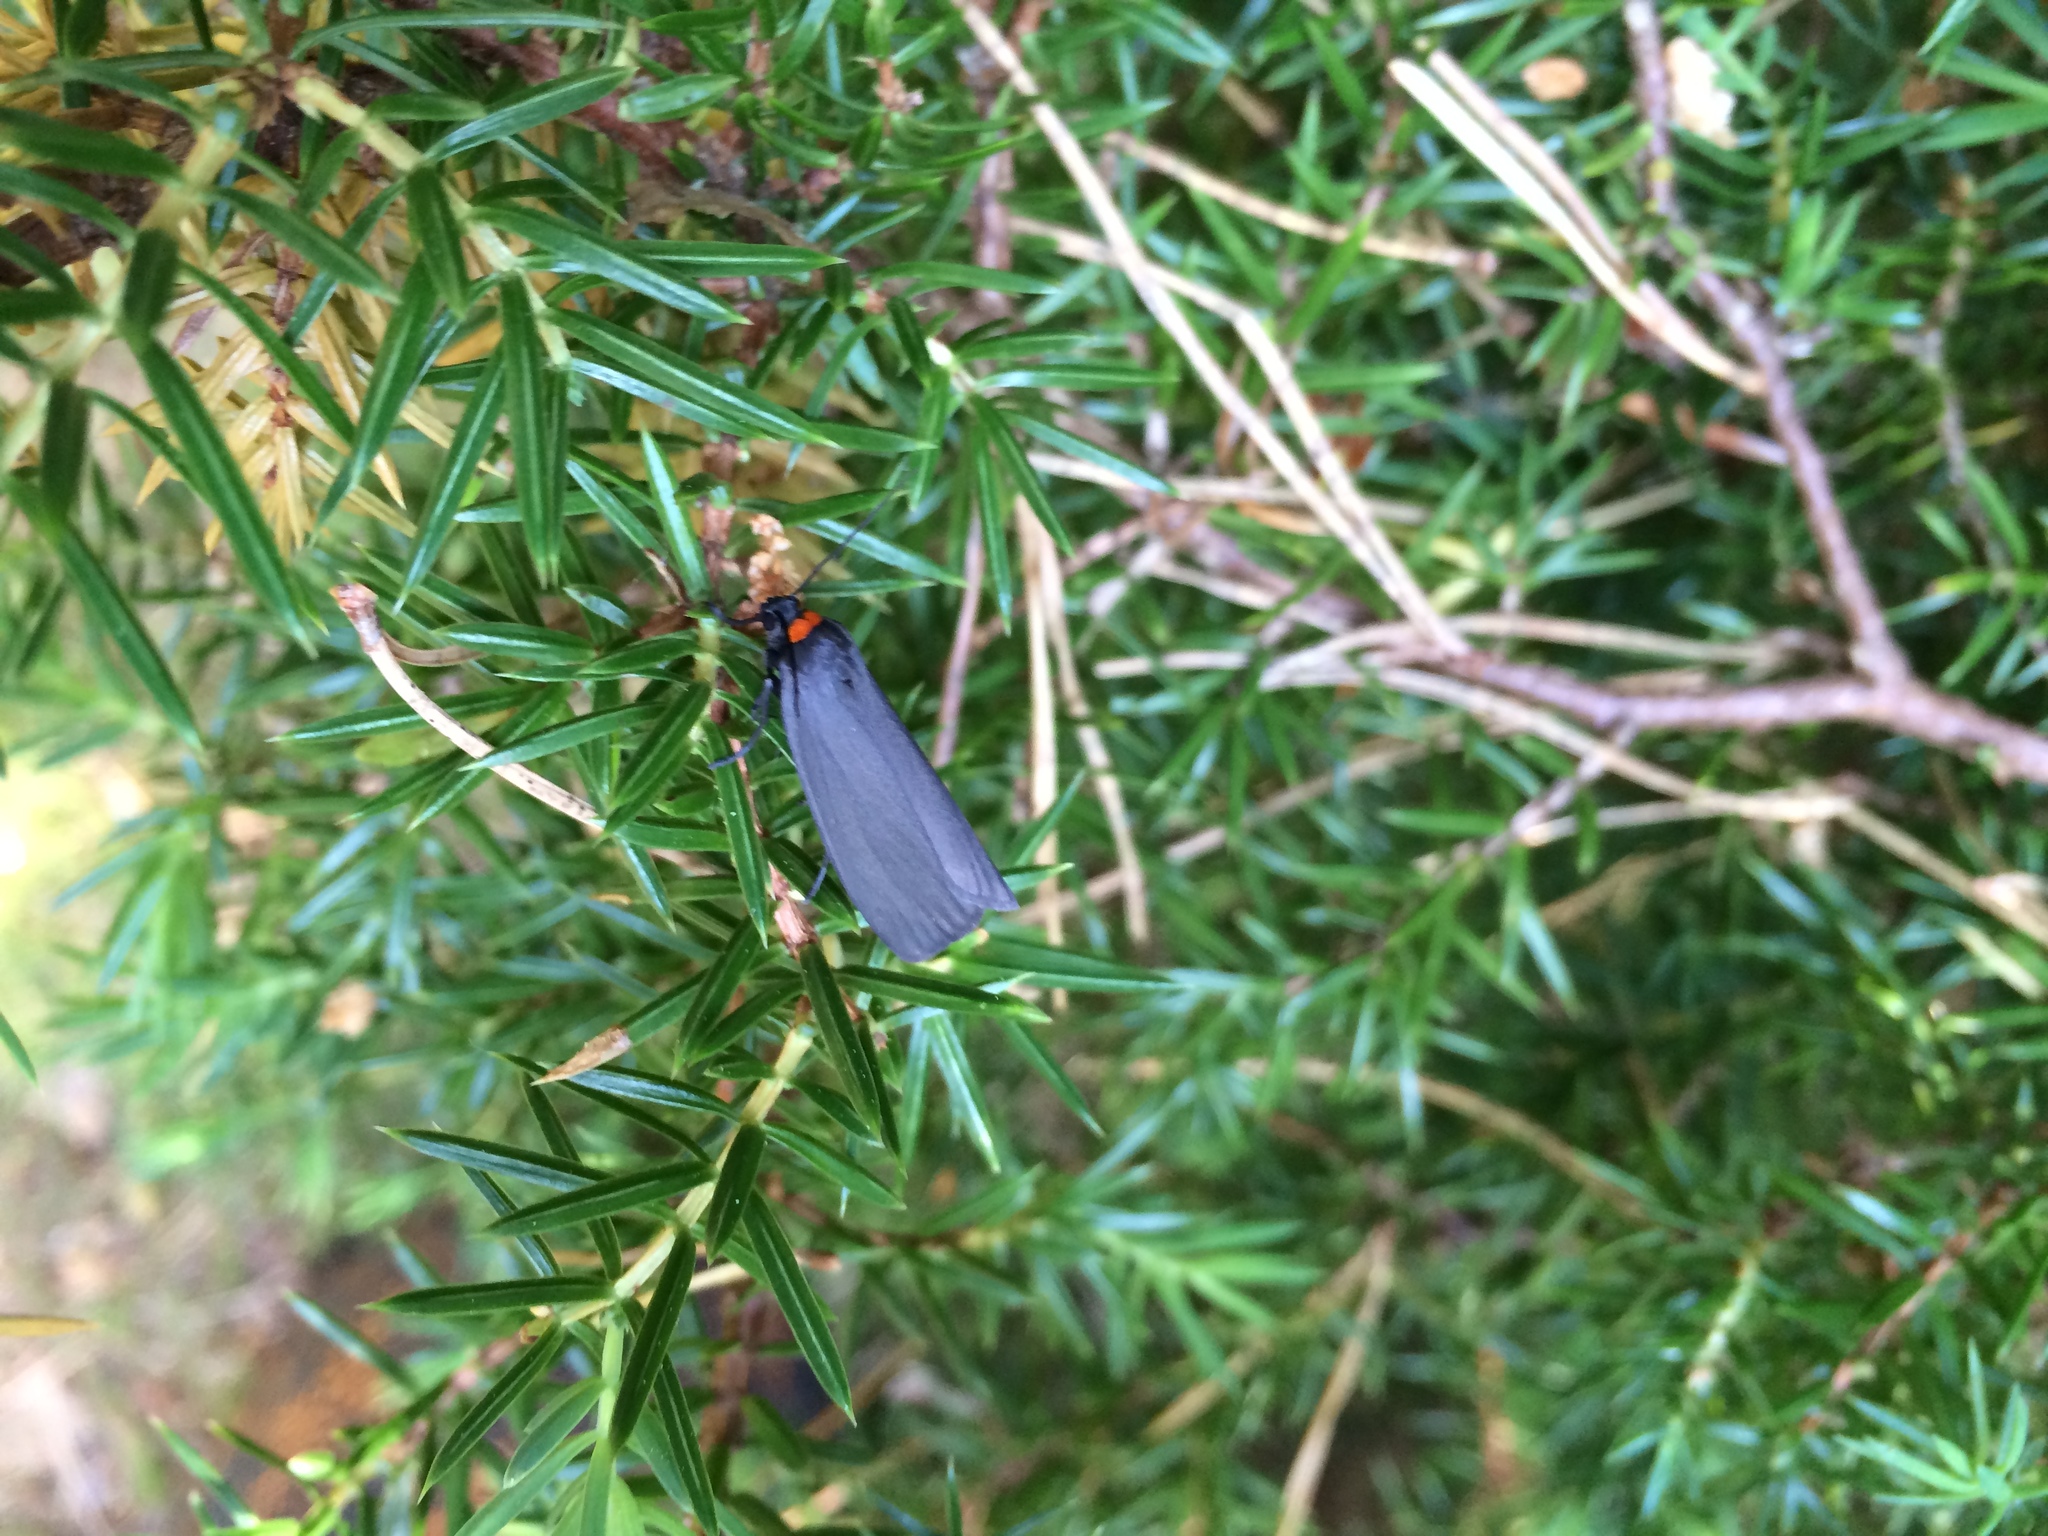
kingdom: Animalia
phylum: Arthropoda
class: Insecta
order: Lepidoptera
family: Erebidae
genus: Atolmis
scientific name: Atolmis rubricollis
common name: Red-necked footman
